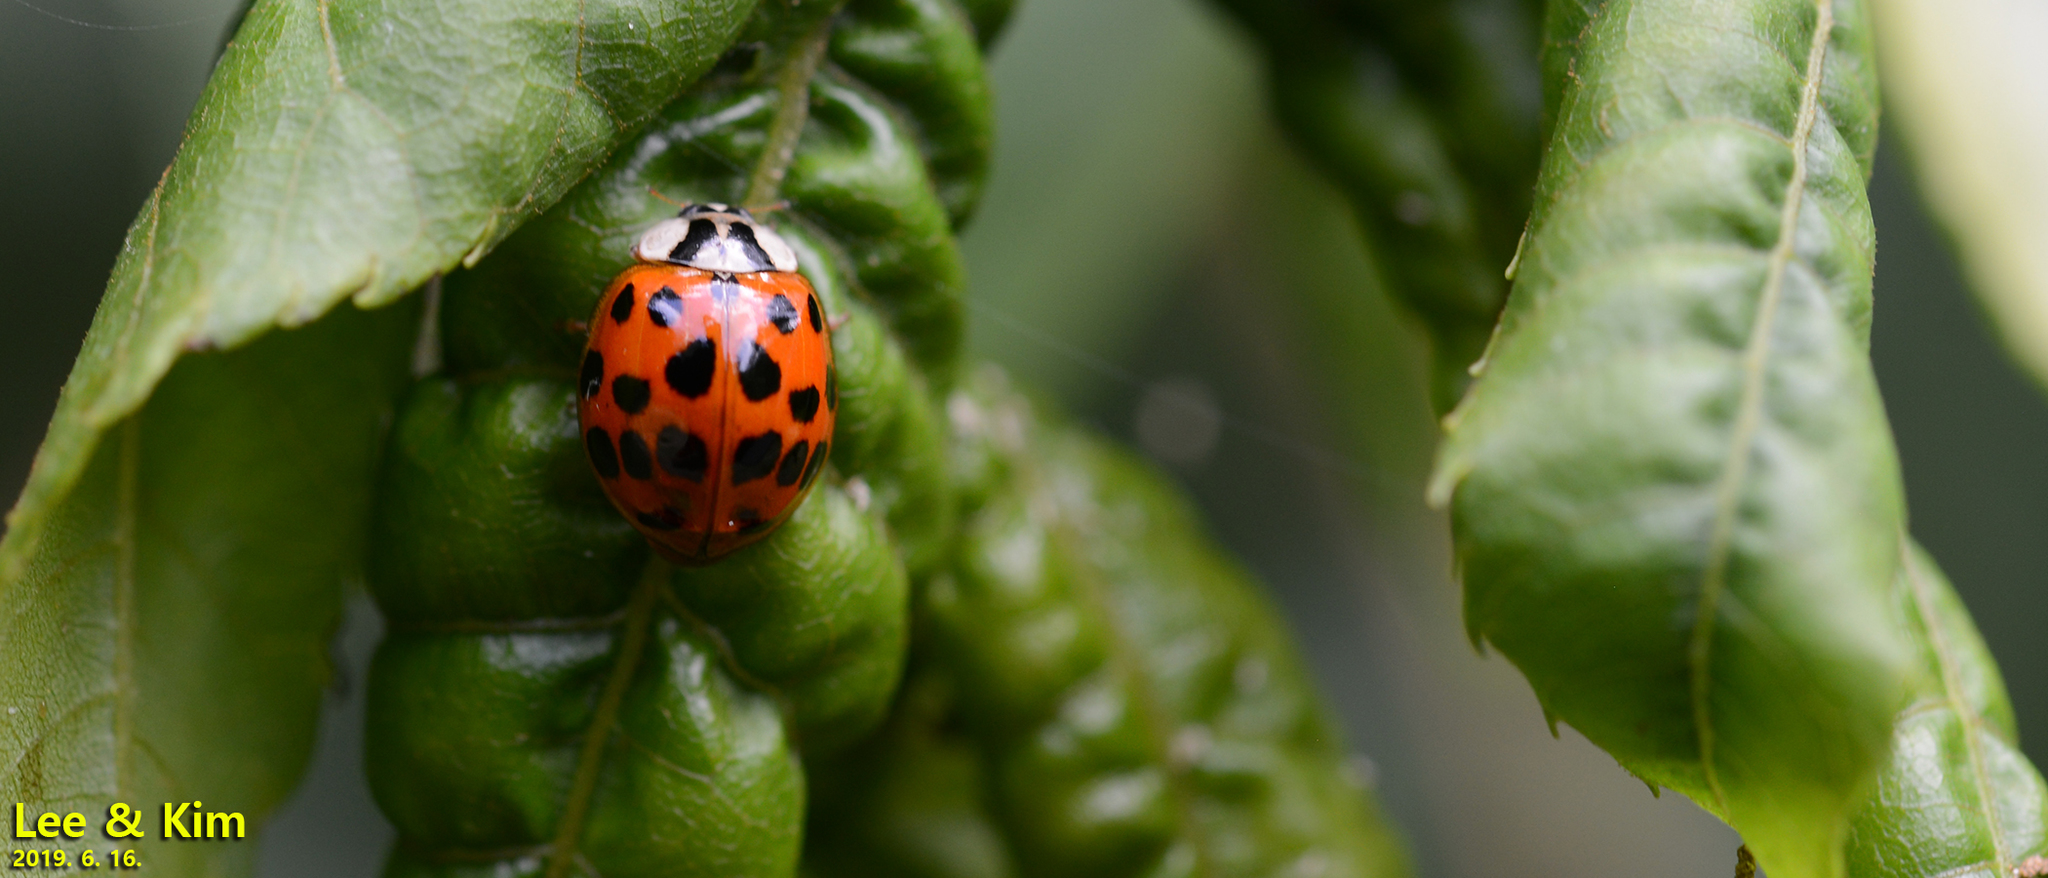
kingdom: Animalia
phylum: Arthropoda
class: Insecta
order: Coleoptera
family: Coccinellidae
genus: Harmonia
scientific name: Harmonia axyridis
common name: Harlequin ladybird
